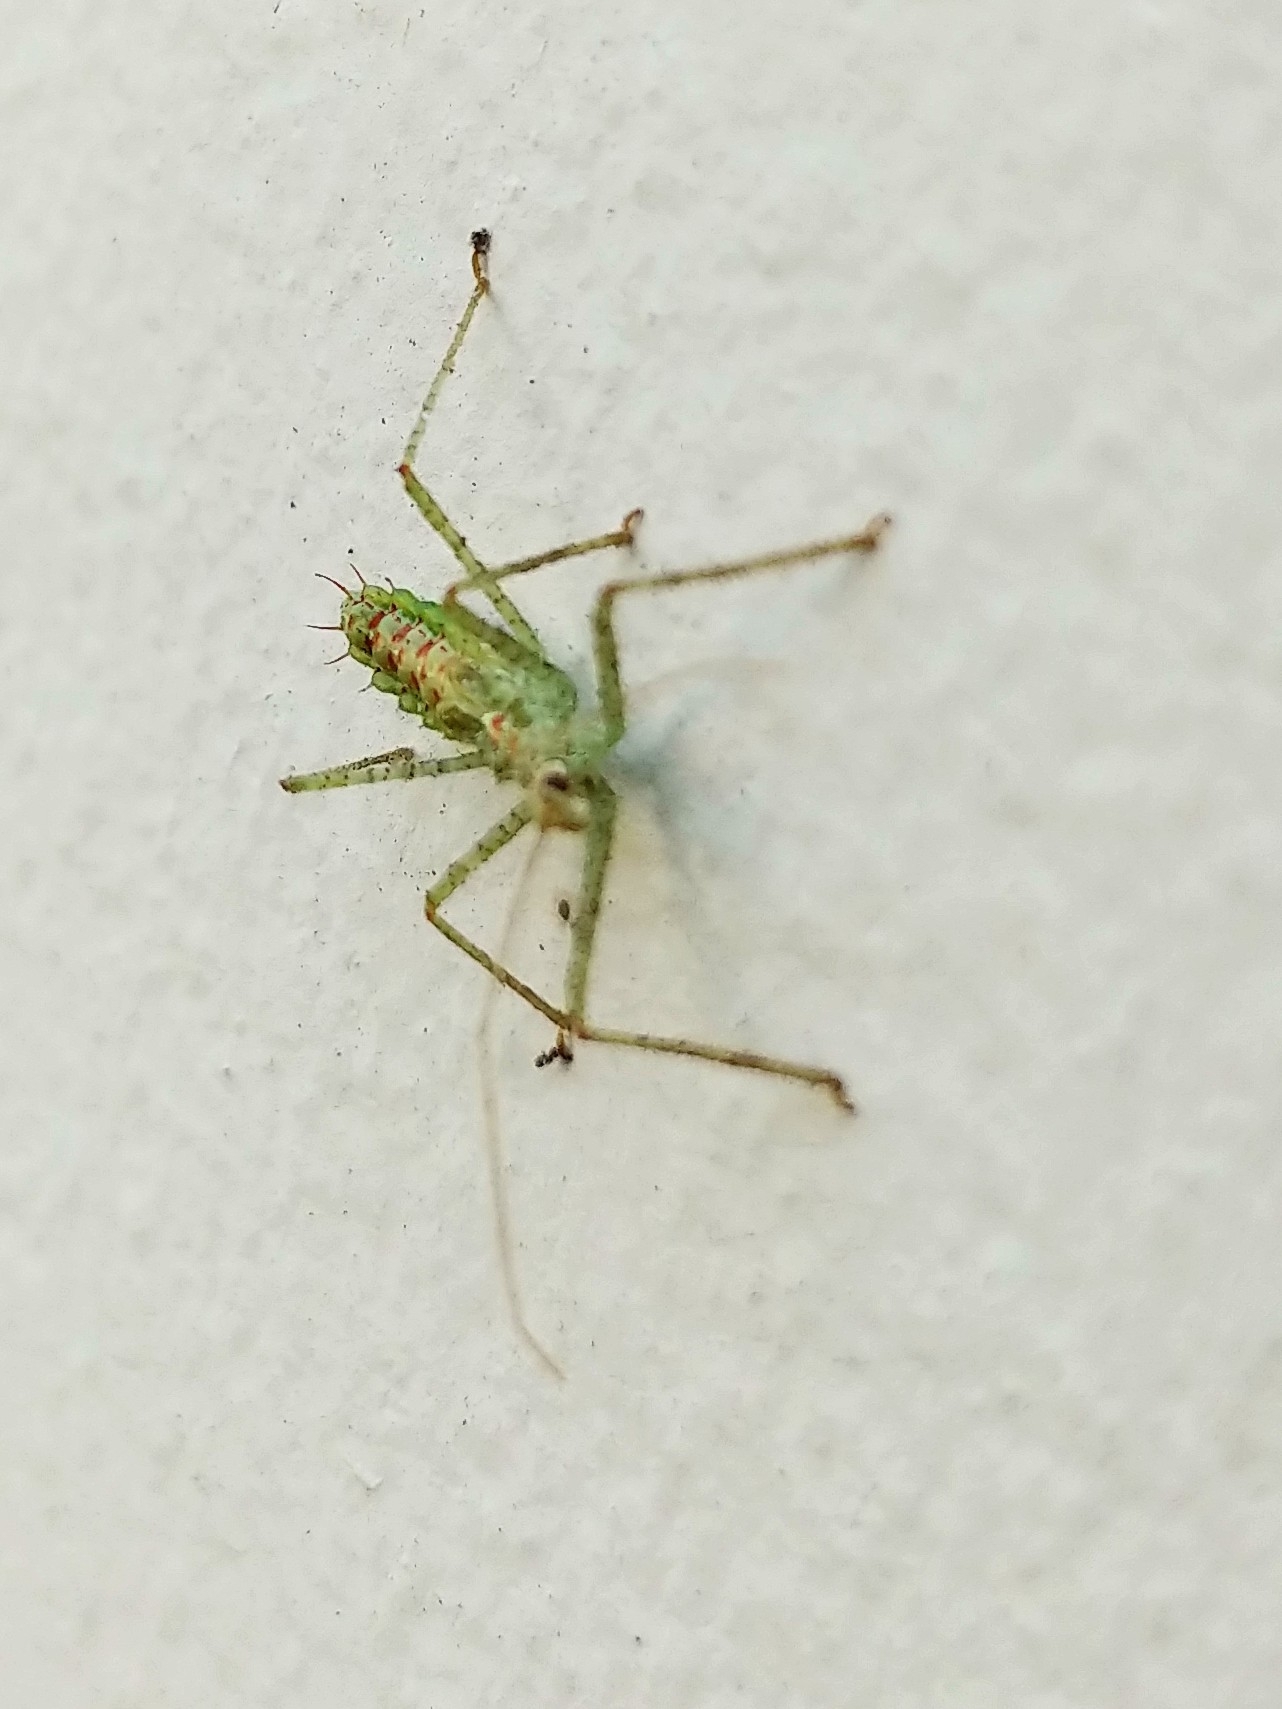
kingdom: Animalia
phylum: Arthropoda
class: Insecta
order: Hemiptera
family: Reduviidae
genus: Zelus
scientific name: Zelus renardii
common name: Assassin bug
